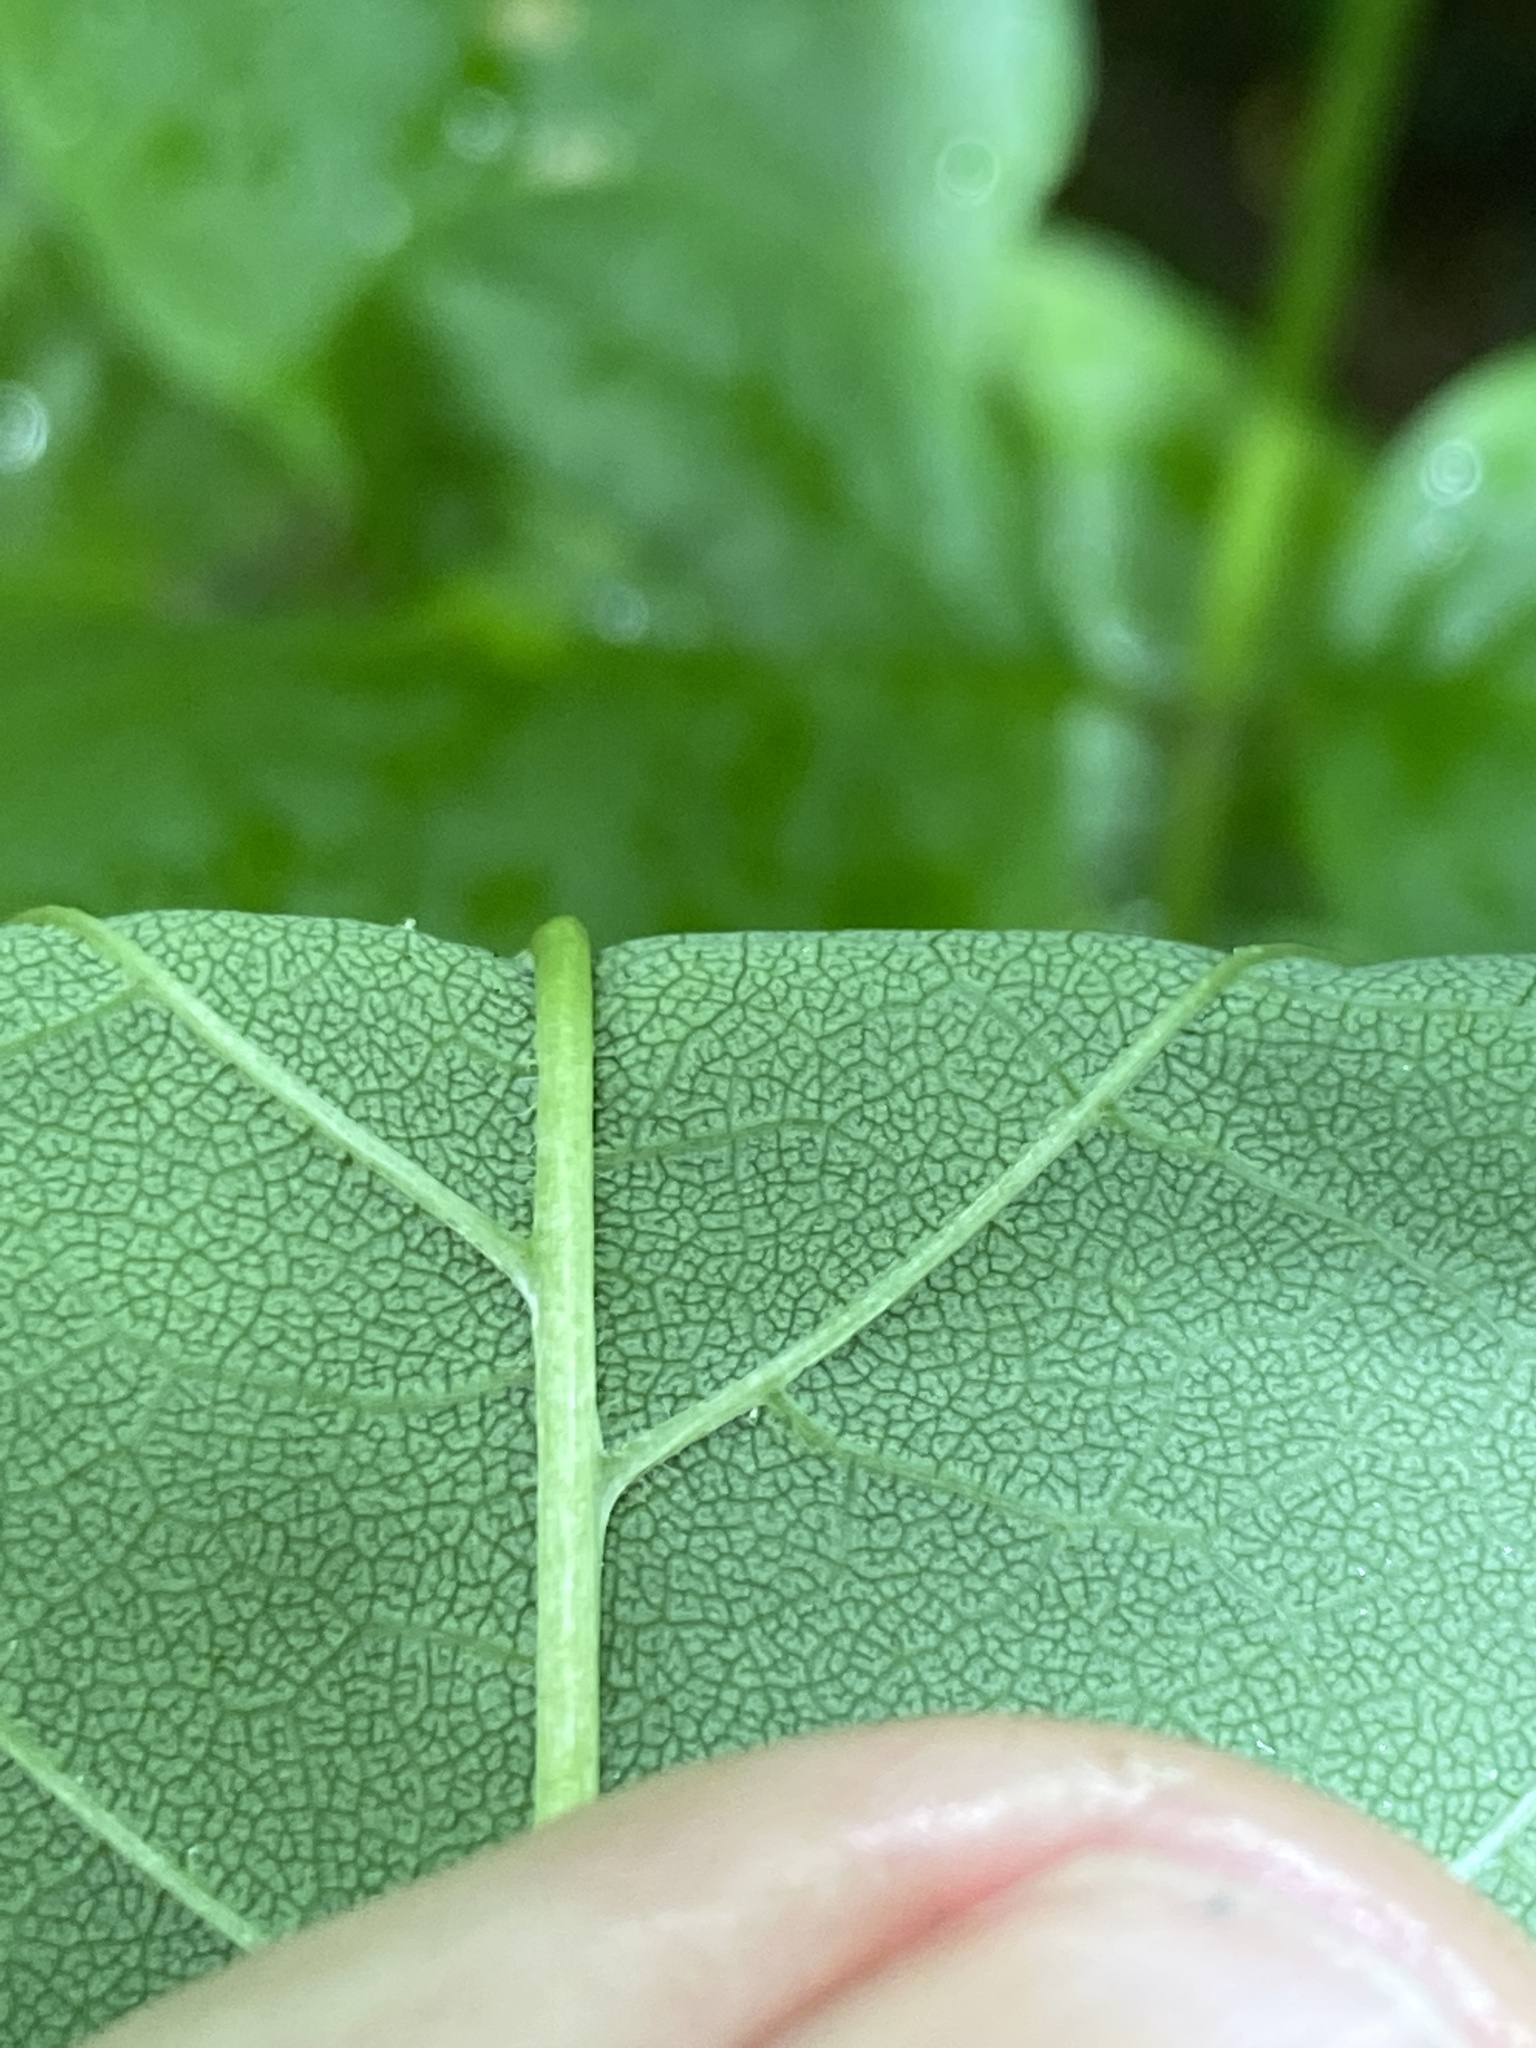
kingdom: Plantae
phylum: Tracheophyta
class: Magnoliopsida
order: Lamiales
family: Oleaceae
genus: Fraxinus
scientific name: Fraxinus americana
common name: White ash
